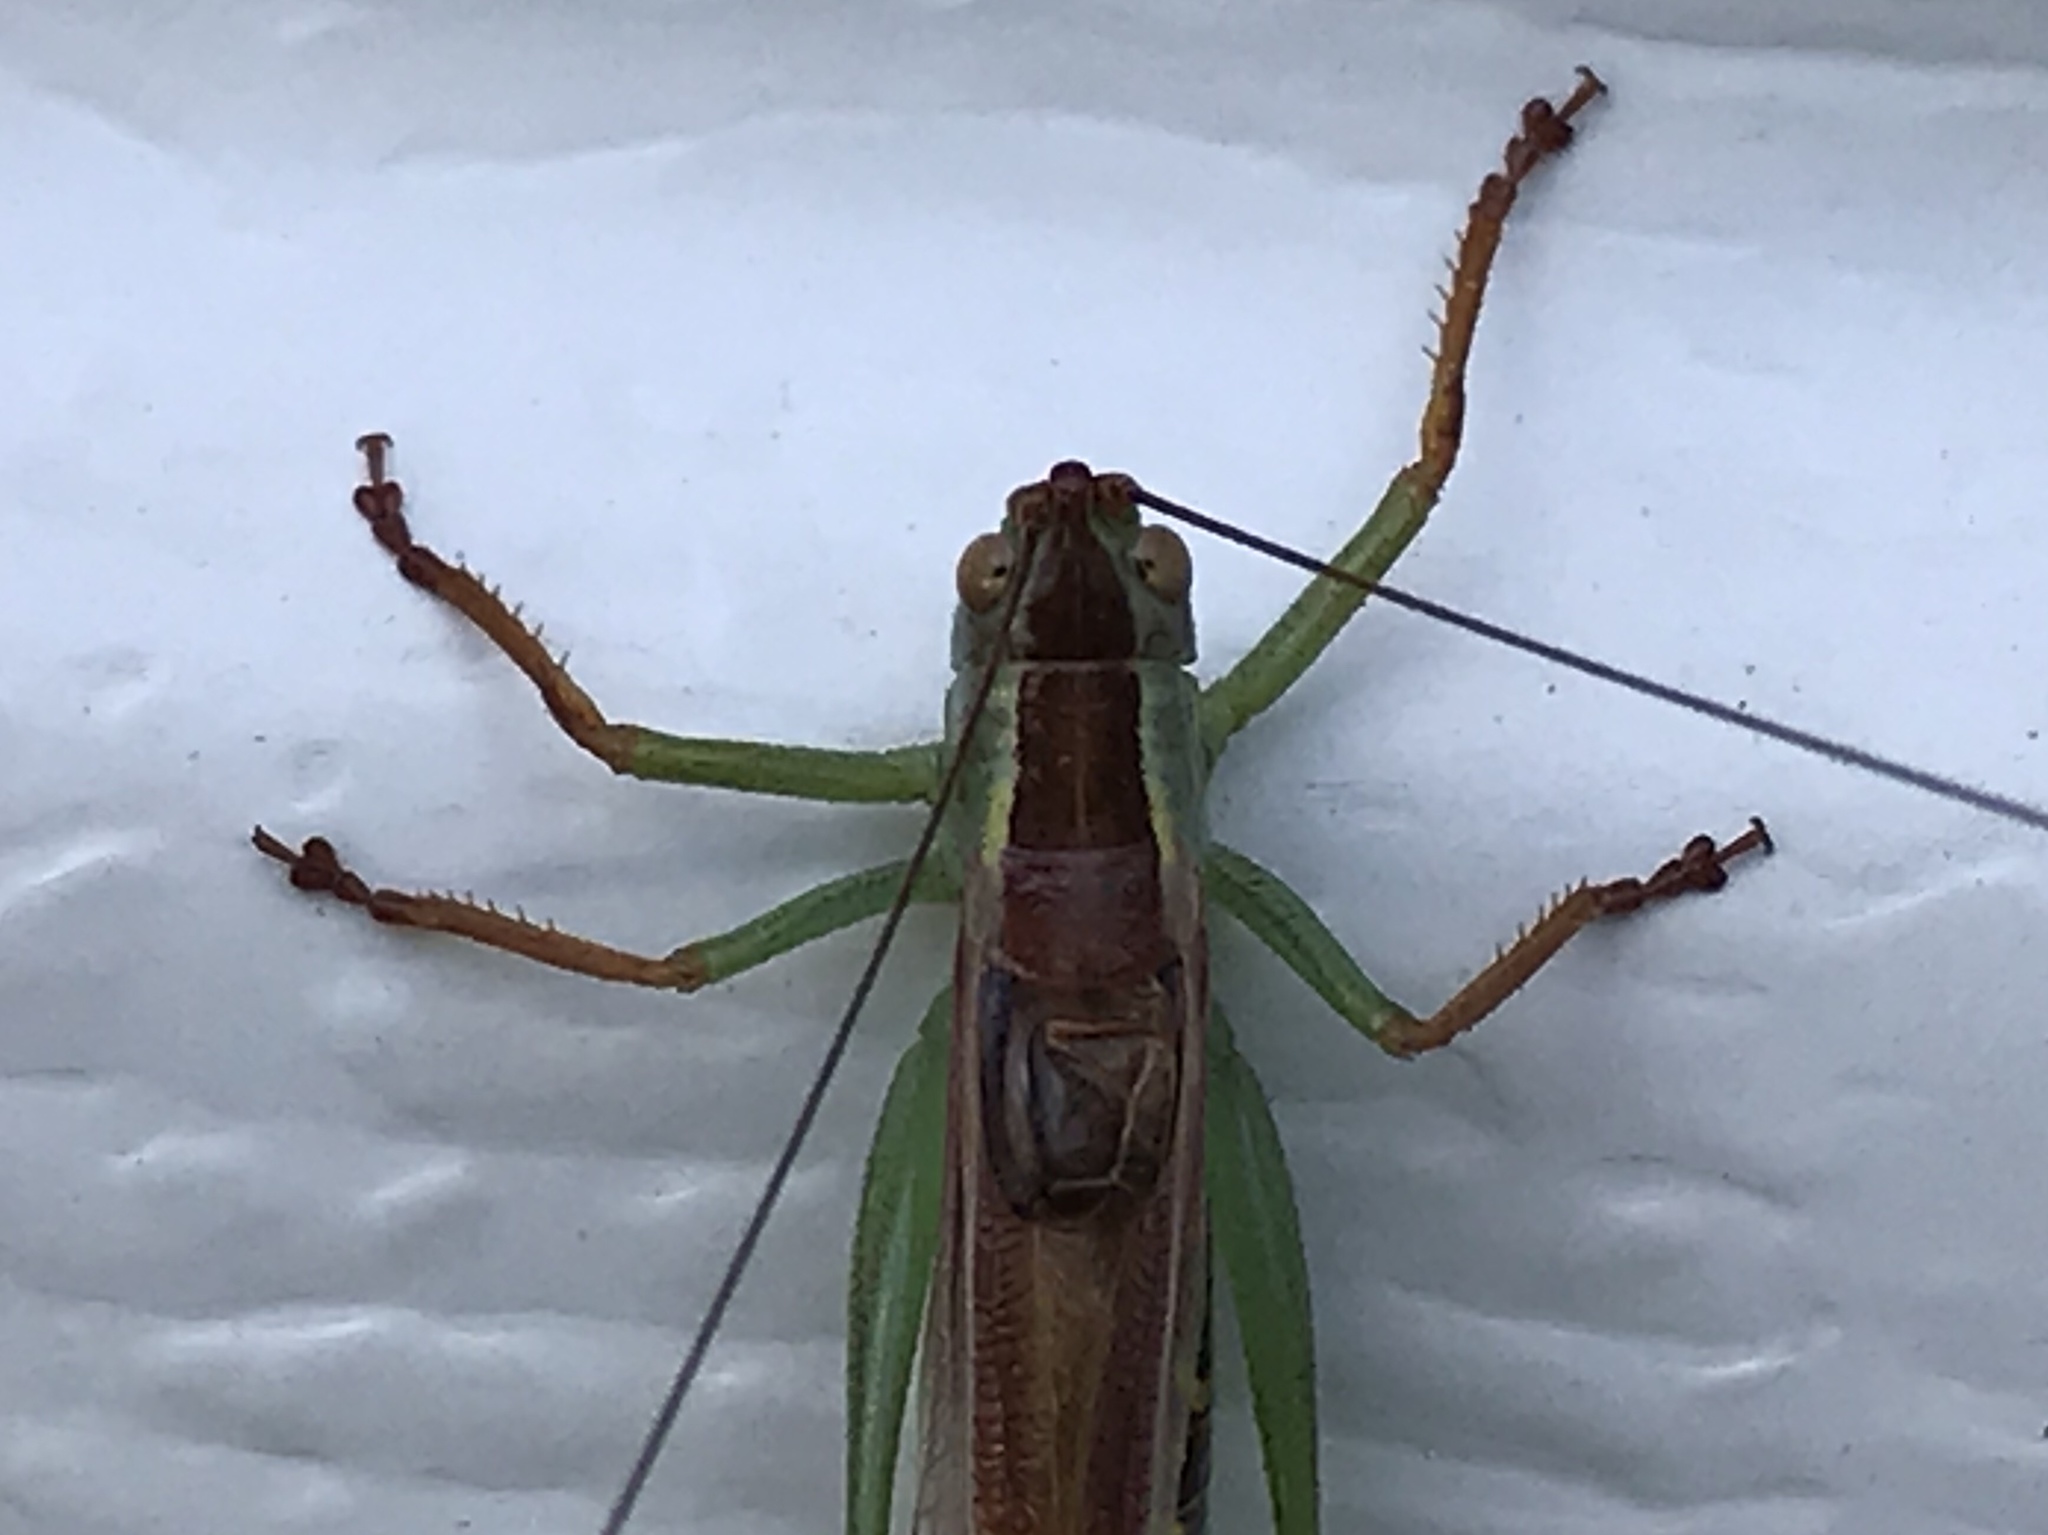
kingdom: Animalia
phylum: Arthropoda
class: Insecta
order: Orthoptera
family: Tettigoniidae
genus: Orchelimum
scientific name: Orchelimum minor
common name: Lesser pine meadow katydid
